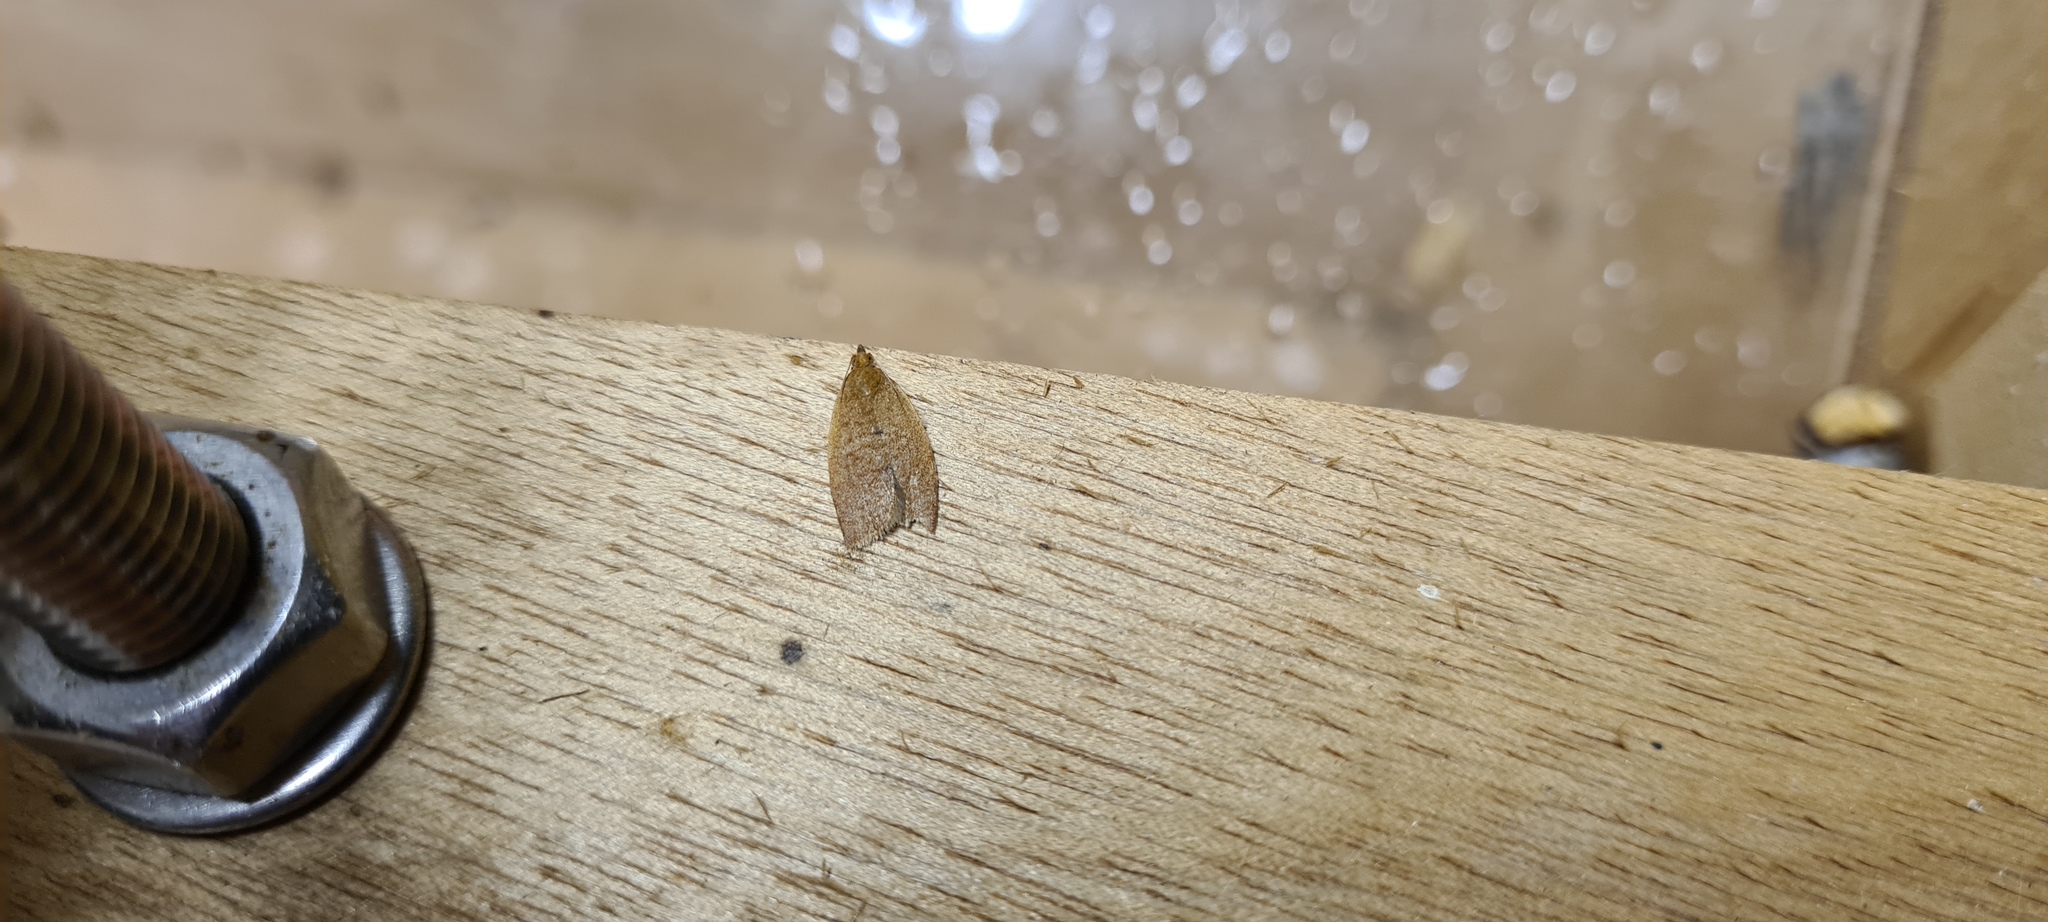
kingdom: Animalia
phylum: Arthropoda
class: Insecta
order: Lepidoptera
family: Tortricidae
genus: Clepsis
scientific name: Clepsis consimilana
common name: Privet tortrix
